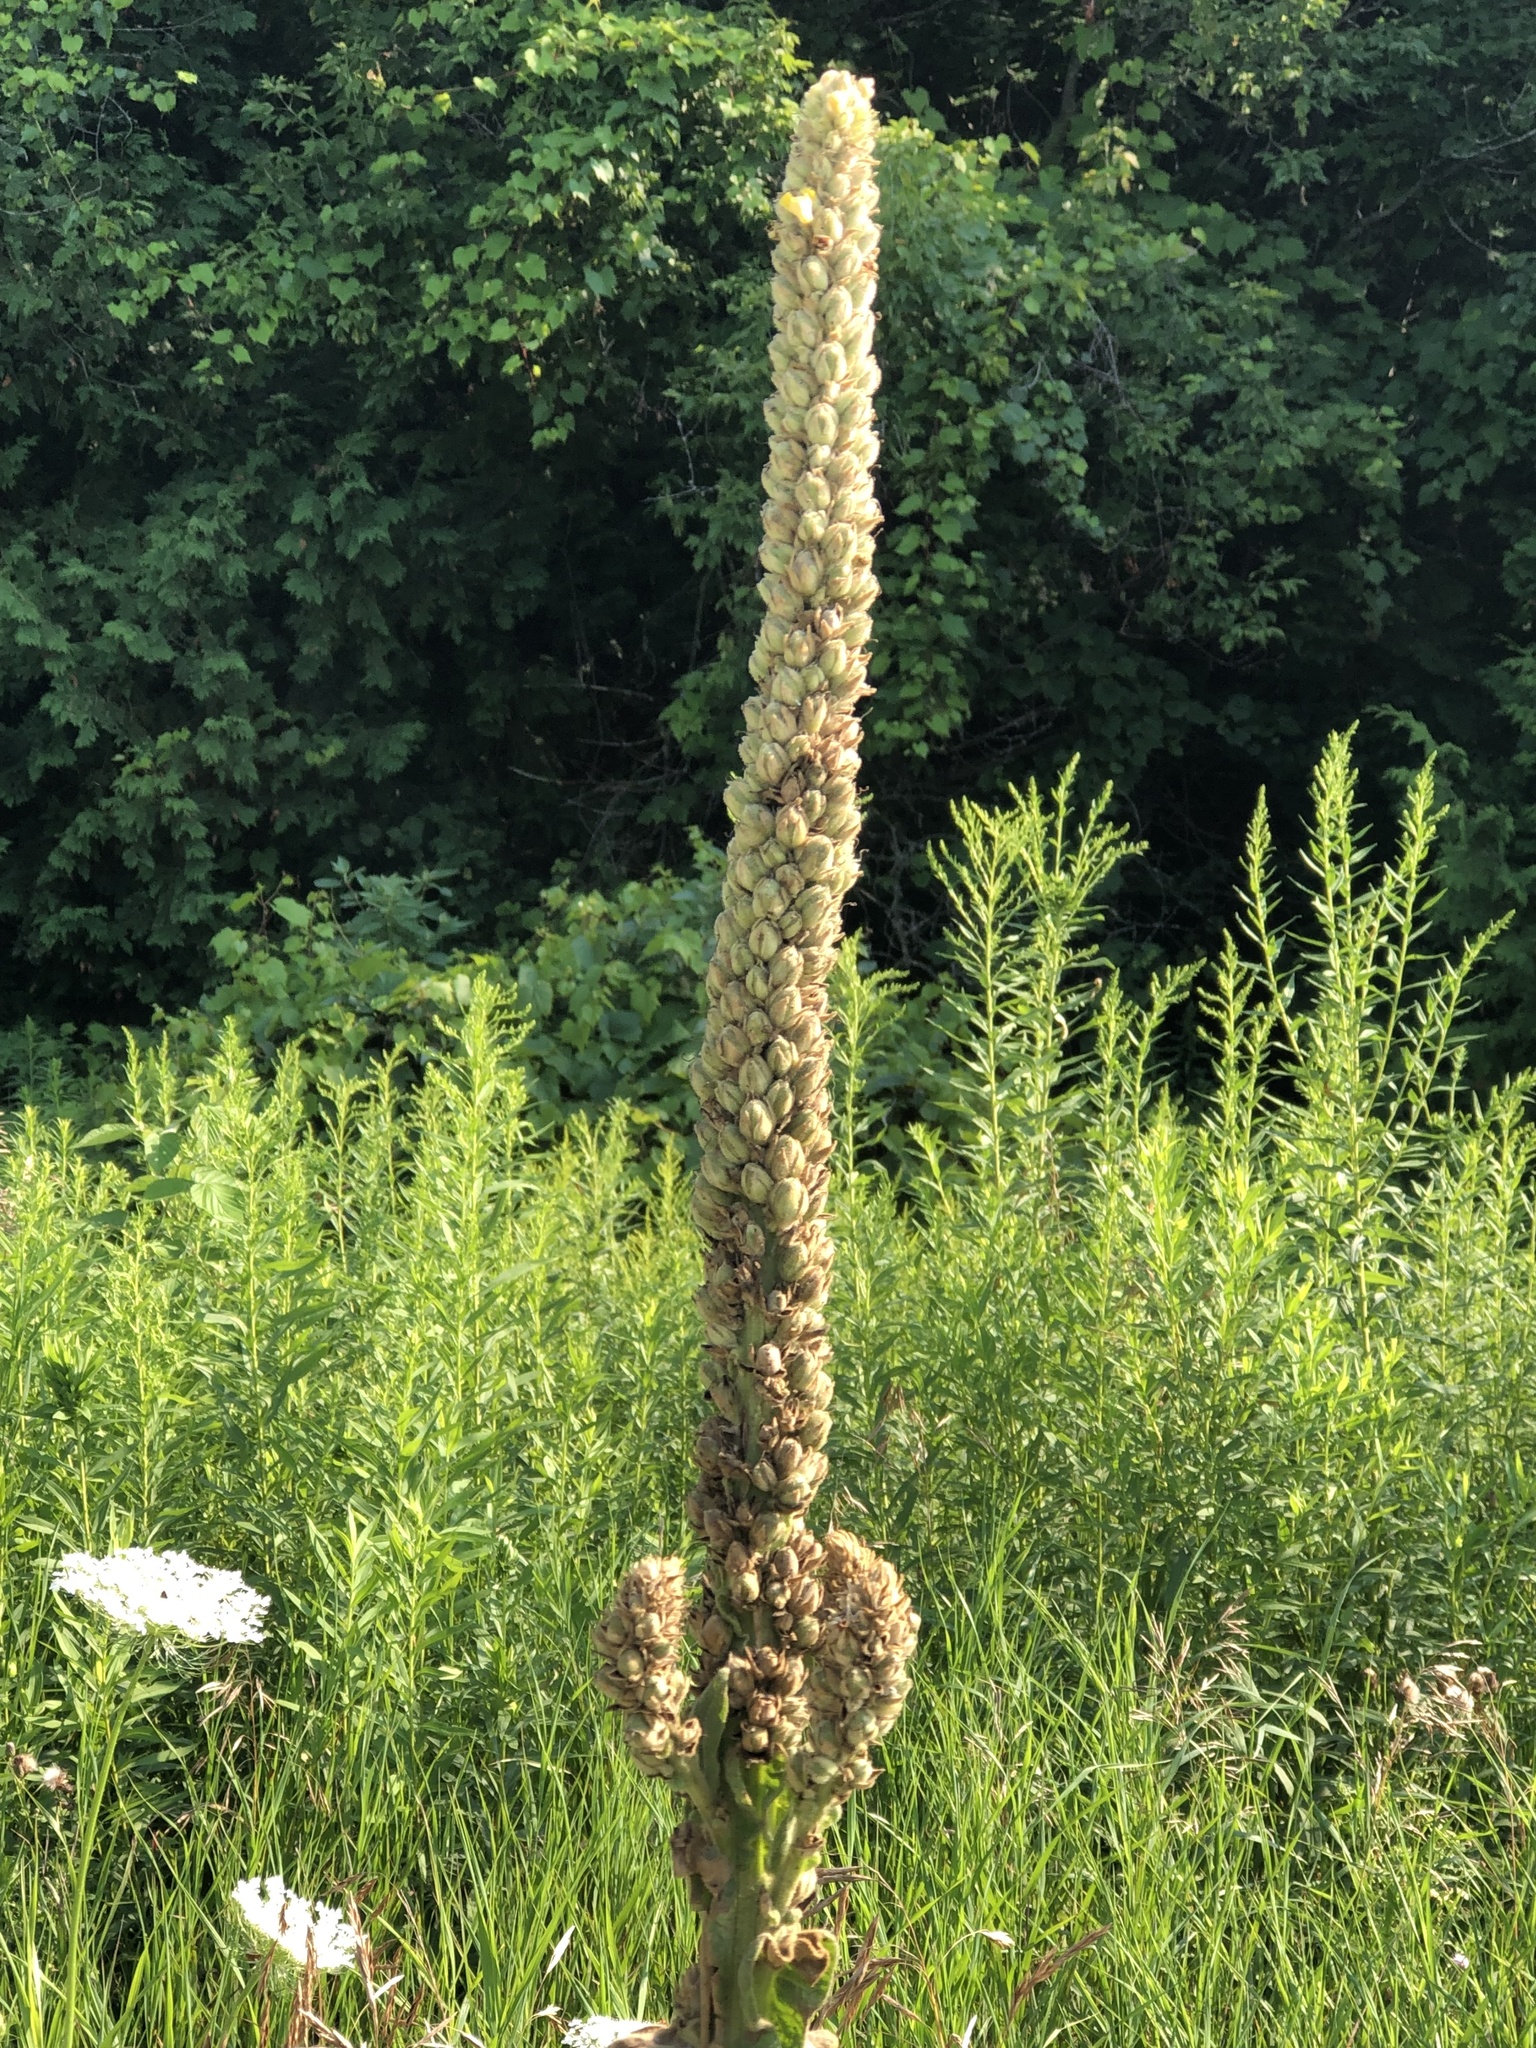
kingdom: Plantae
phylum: Tracheophyta
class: Magnoliopsida
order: Lamiales
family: Scrophulariaceae
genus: Verbascum
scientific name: Verbascum thapsus
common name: Common mullein
